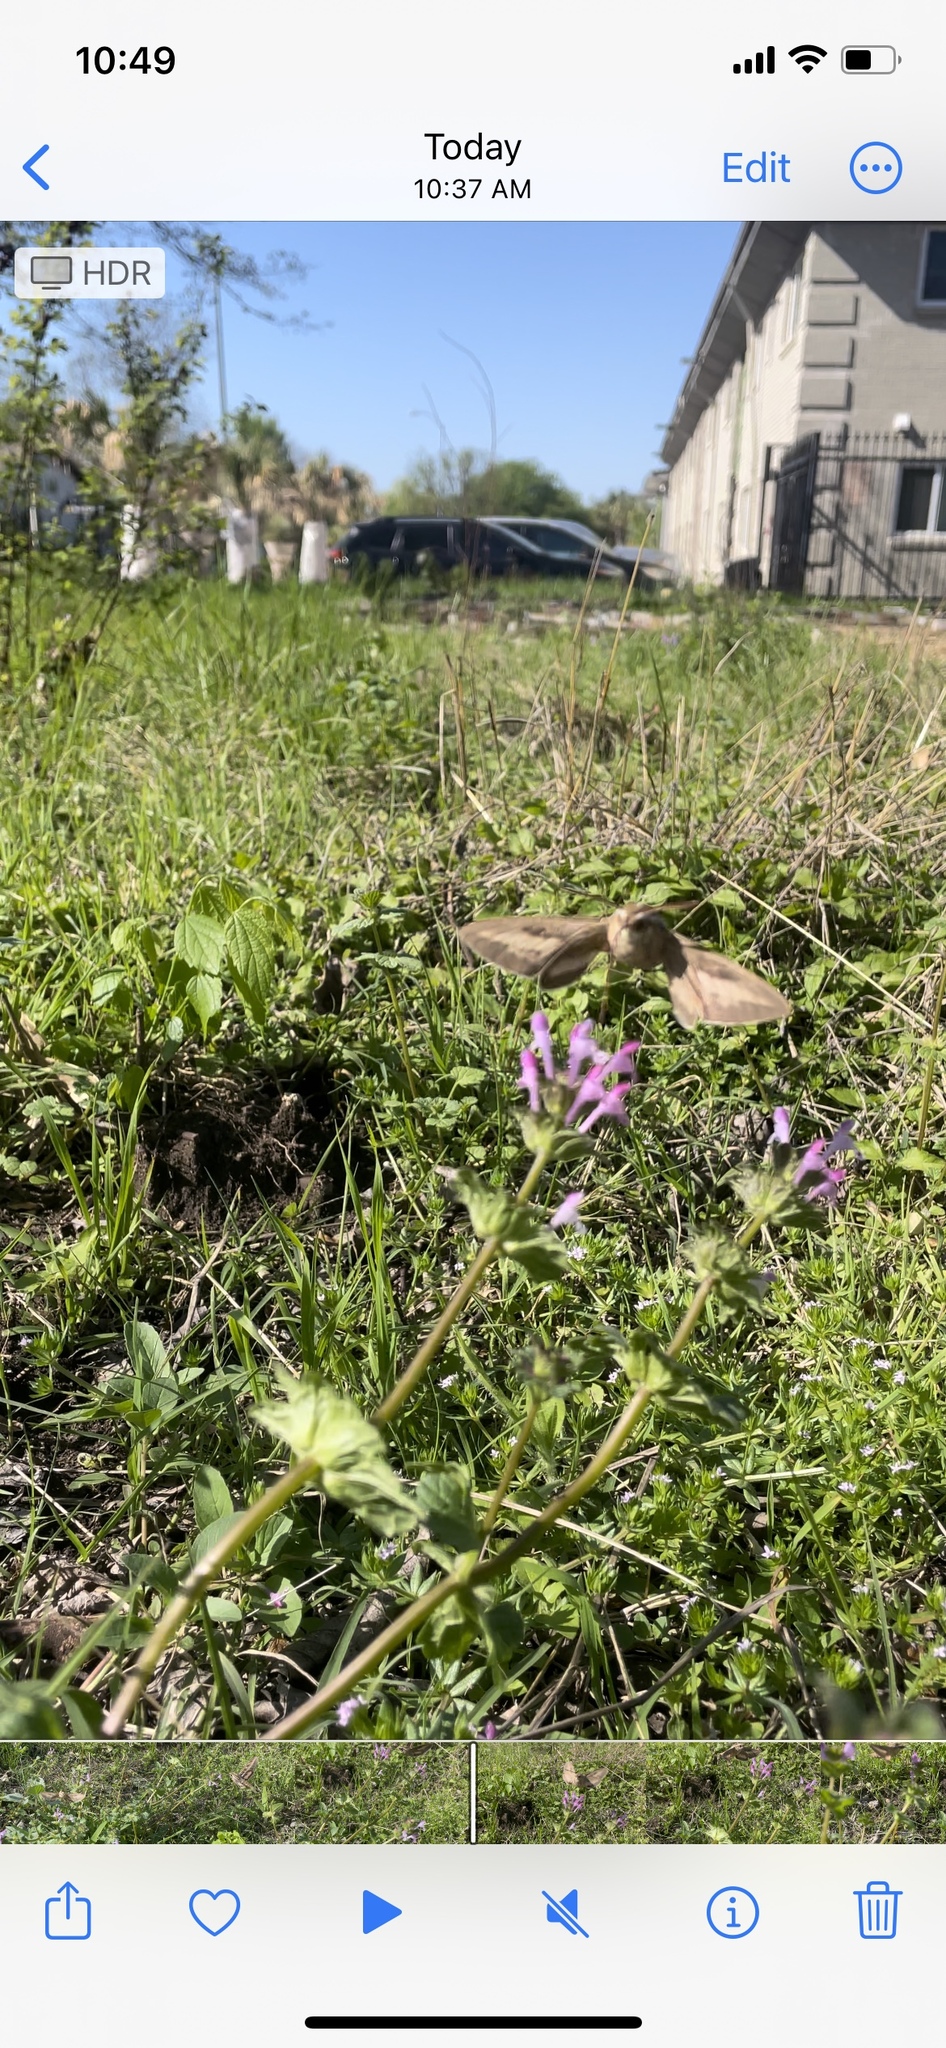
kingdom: Animalia
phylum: Arthropoda
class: Insecta
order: Lepidoptera
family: Sphingidae
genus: Hyles
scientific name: Hyles lineata
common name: White-lined sphinx
